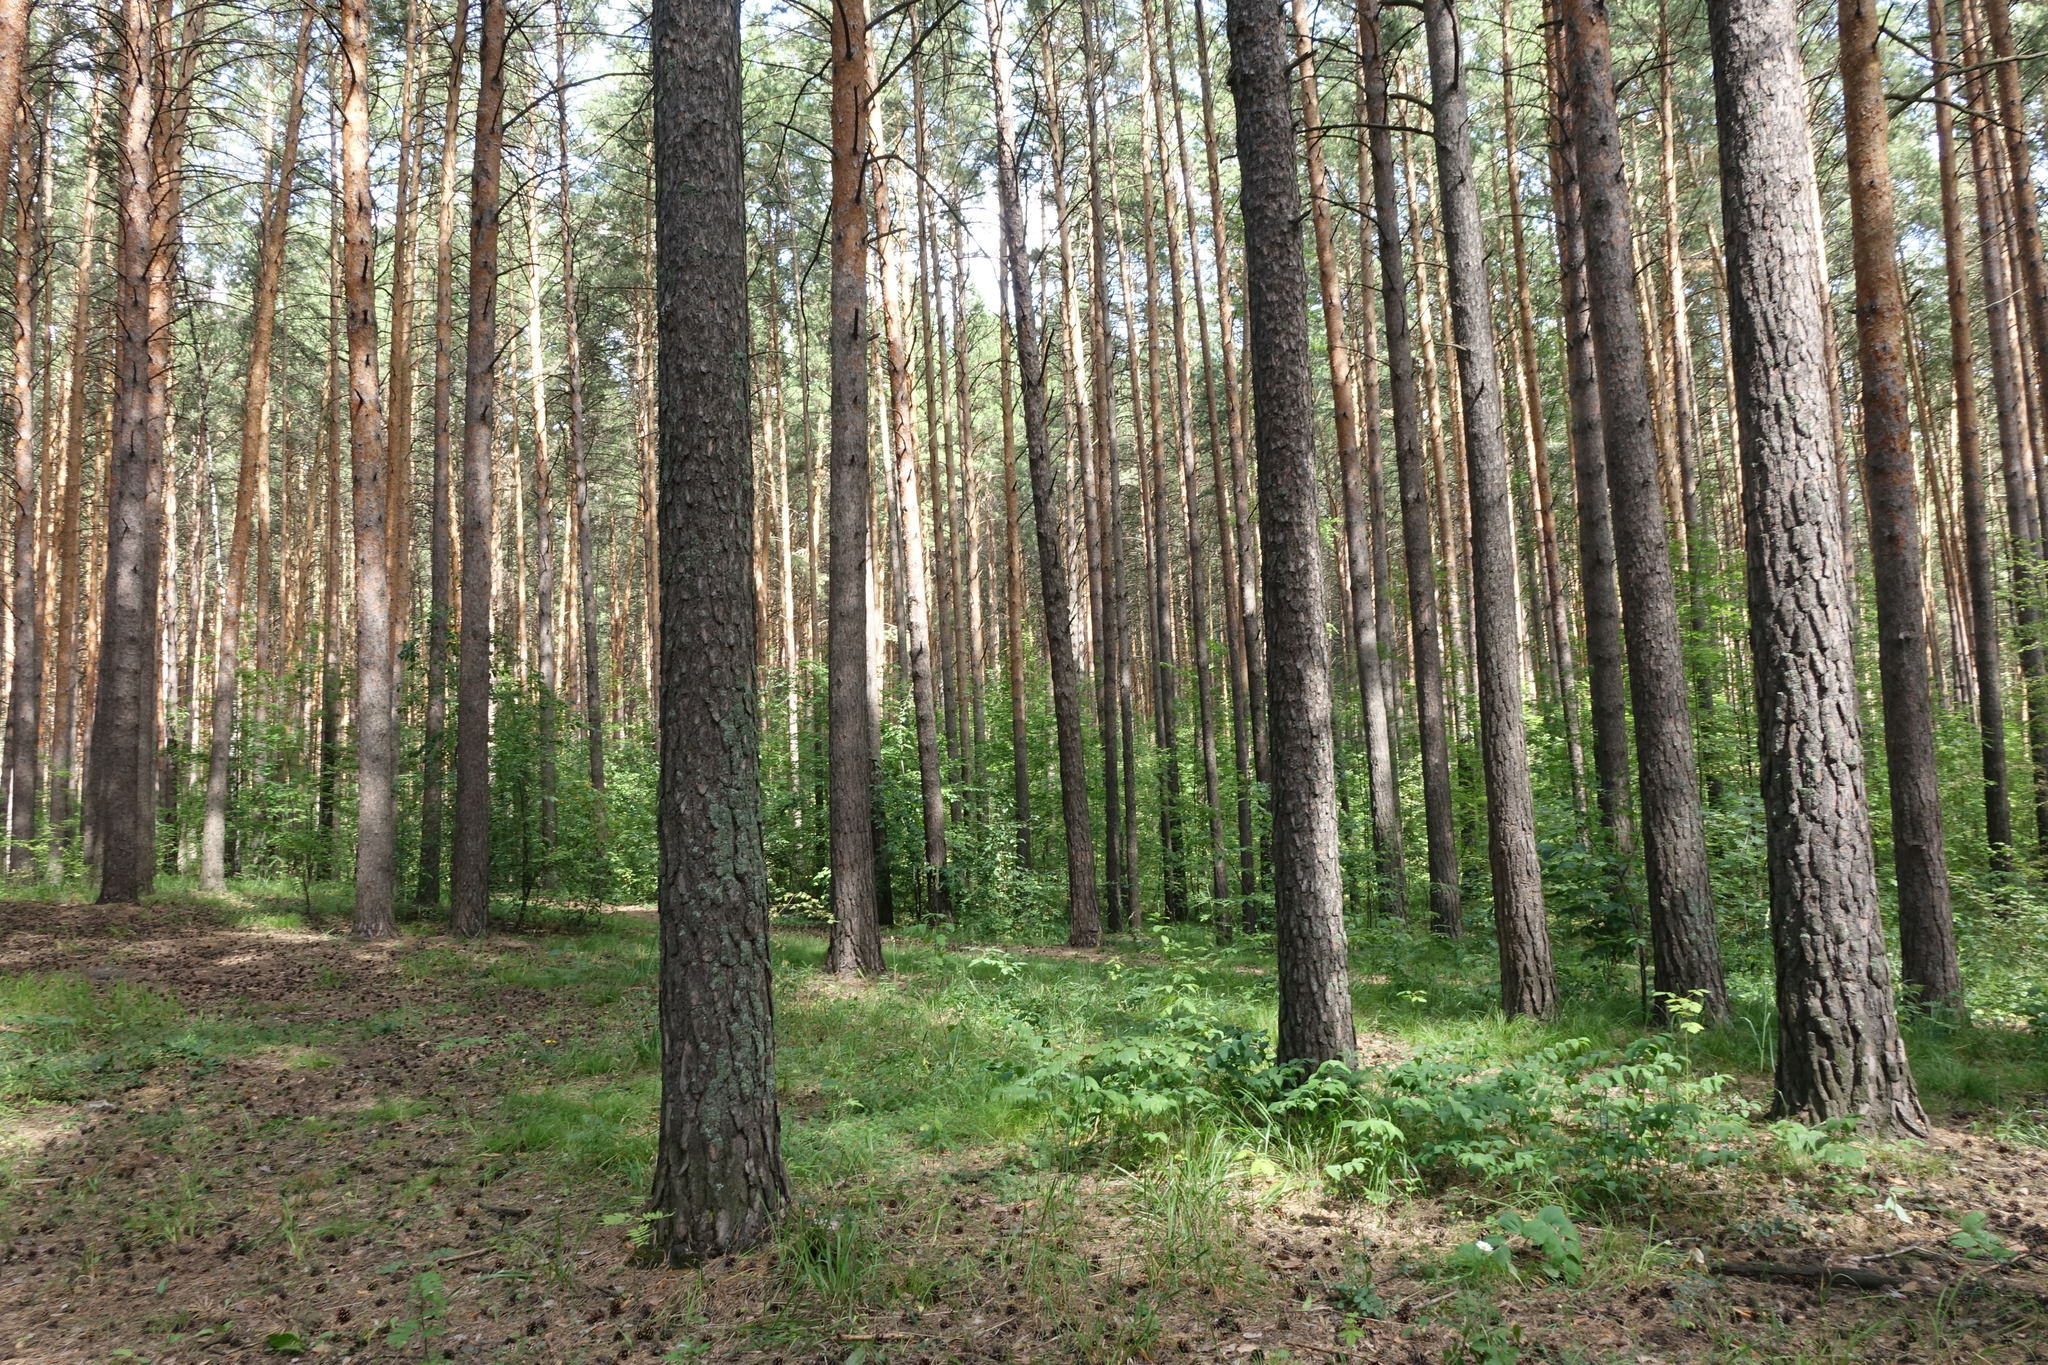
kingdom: Plantae
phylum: Tracheophyta
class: Pinopsida
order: Pinales
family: Pinaceae
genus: Pinus
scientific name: Pinus sylvestris
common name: Scots pine
